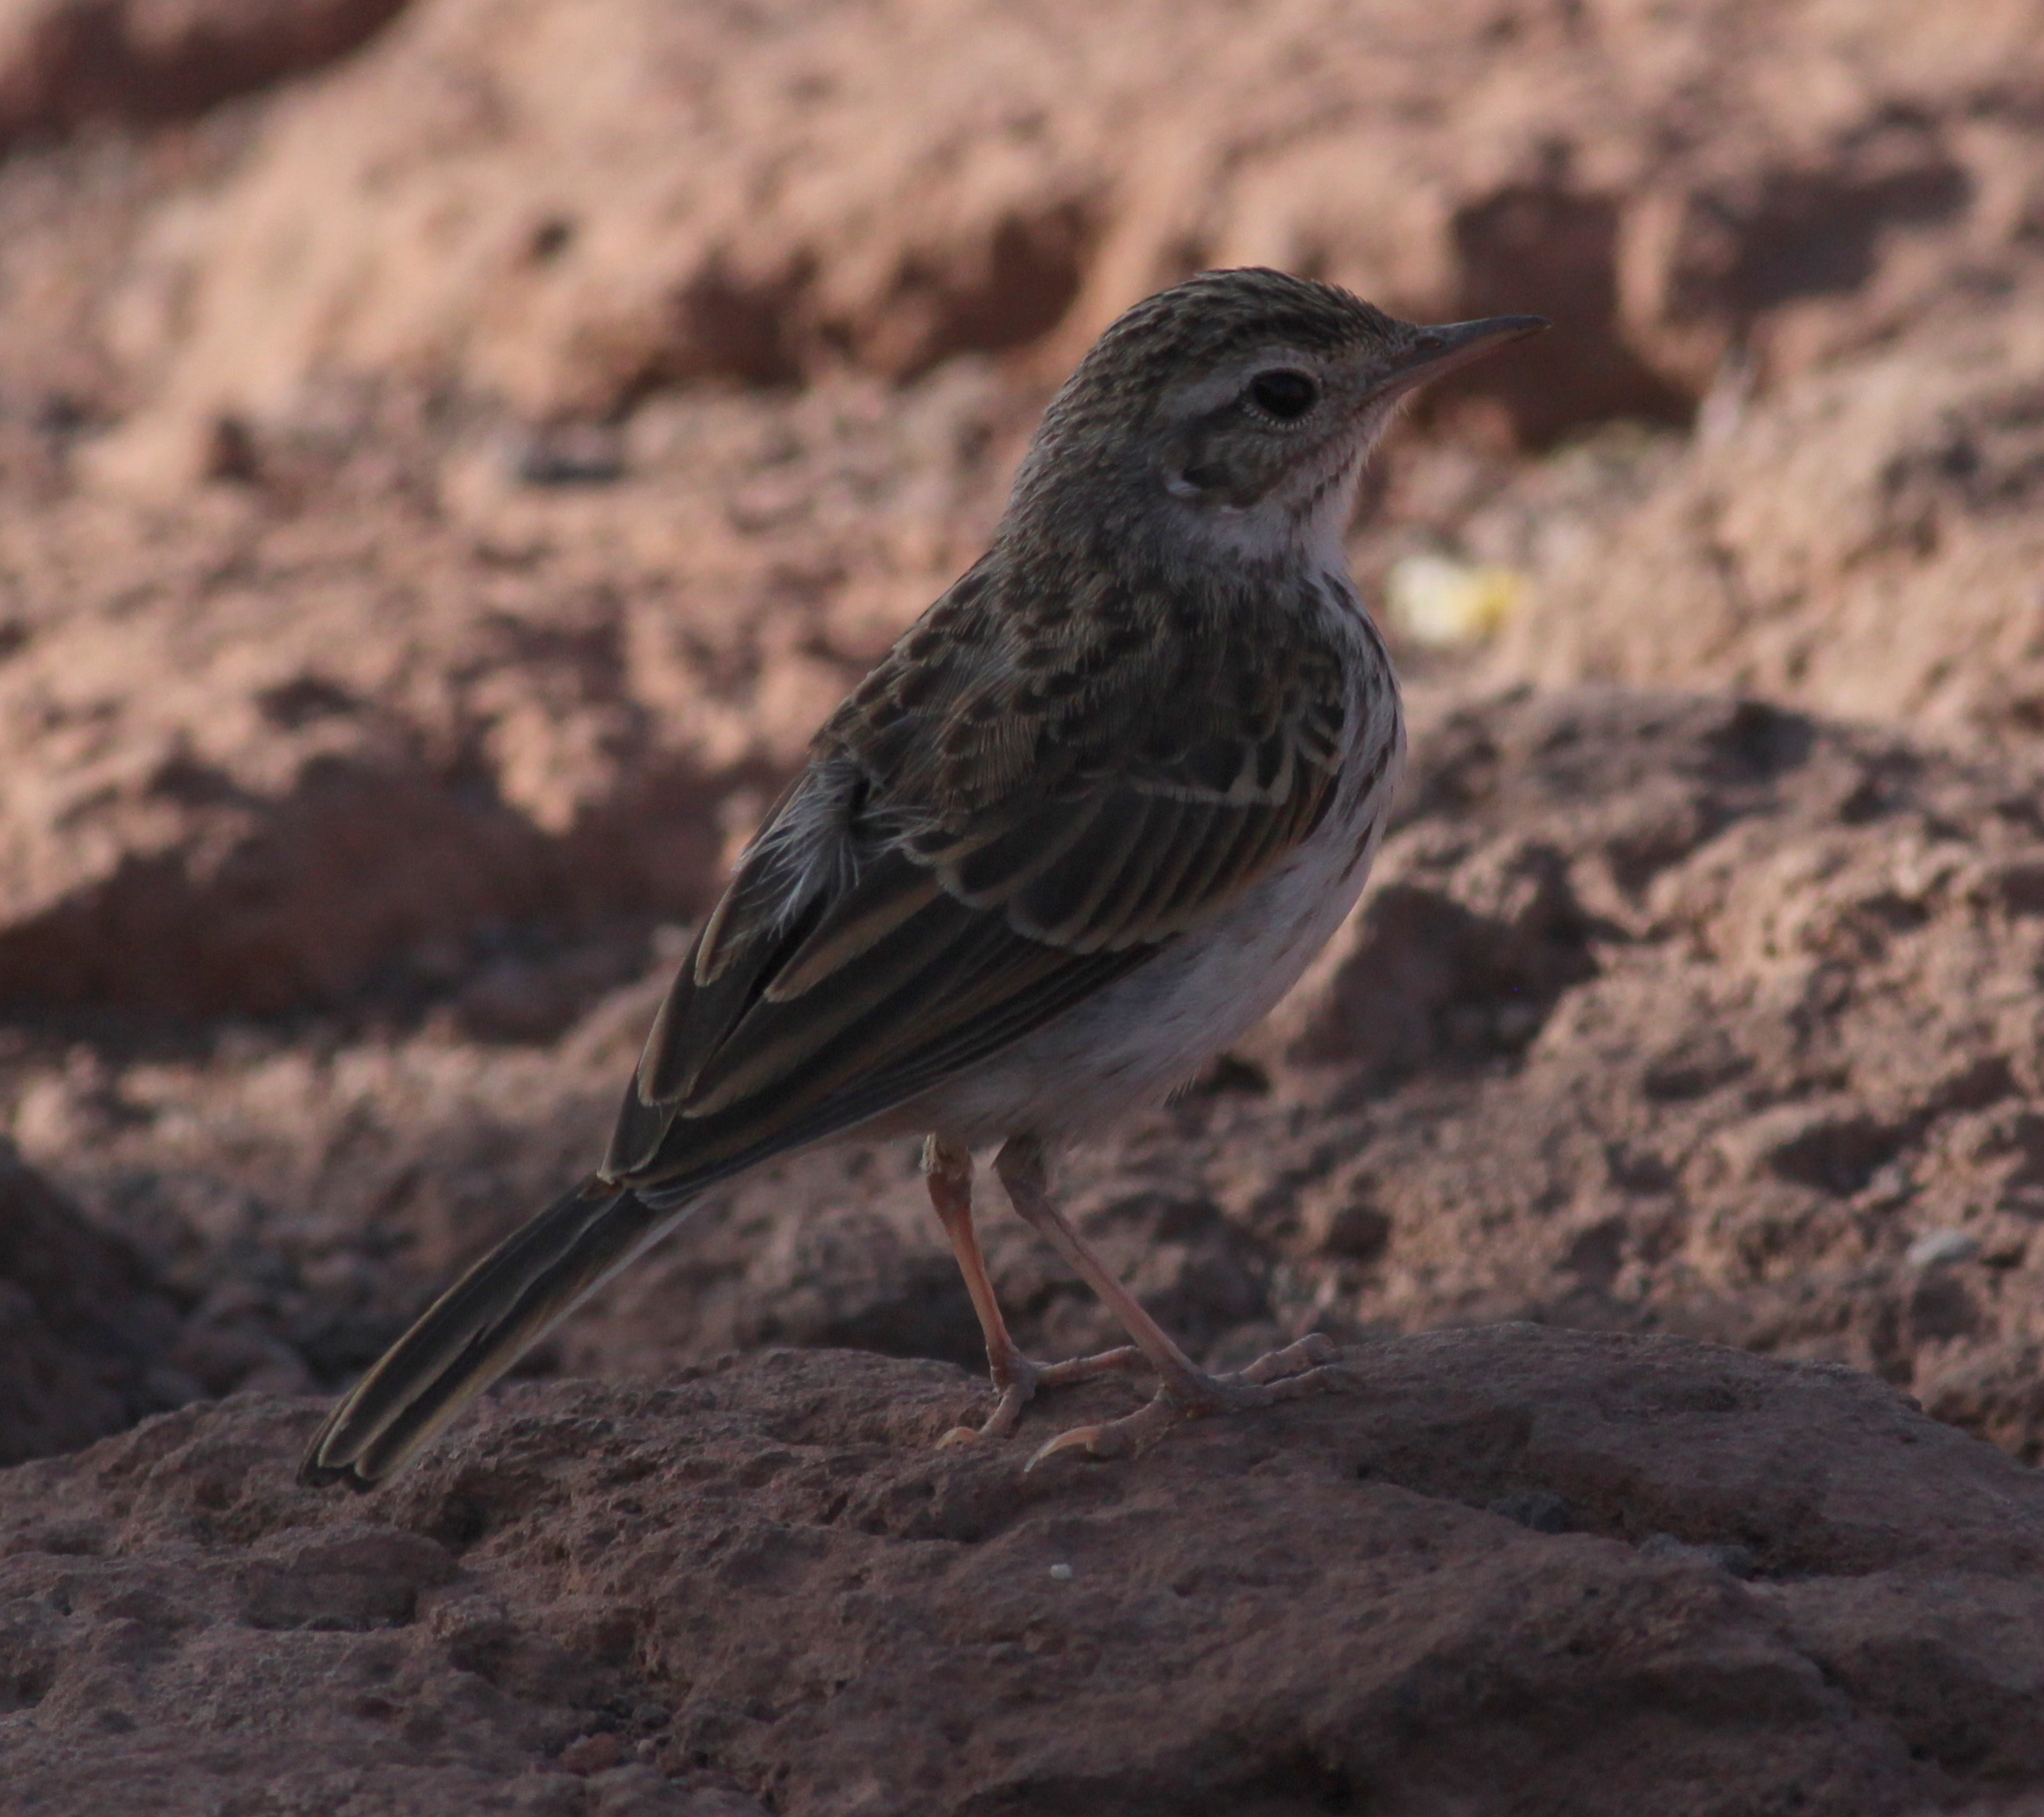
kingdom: Animalia
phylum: Chordata
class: Aves
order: Passeriformes
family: Motacillidae
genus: Anthus
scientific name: Anthus berthelotii
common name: Berthelot's pipit
